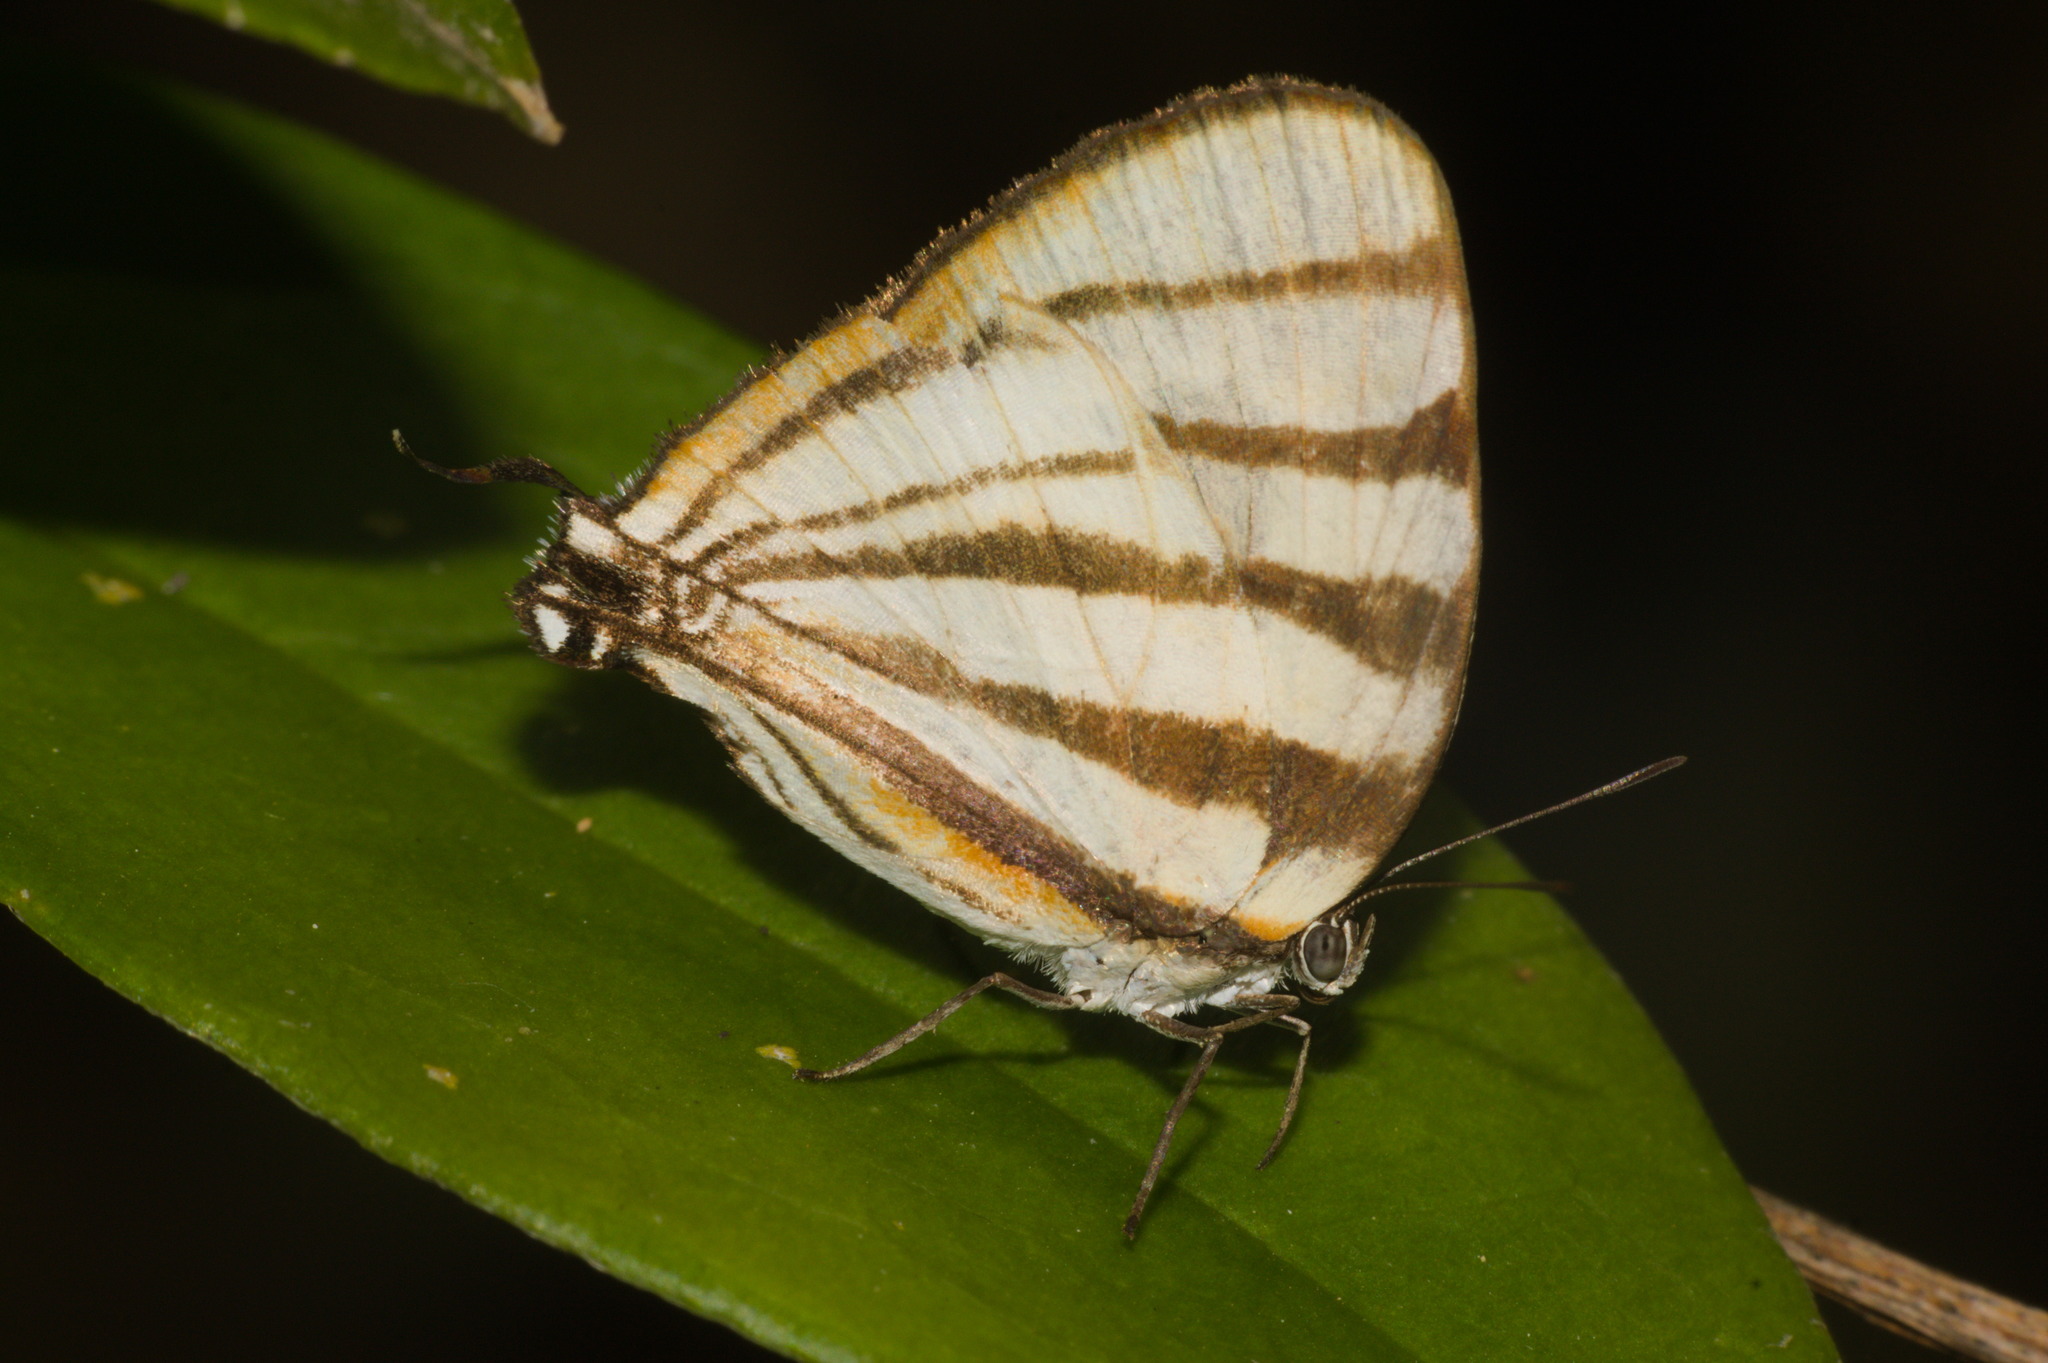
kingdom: Animalia
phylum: Arthropoda
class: Insecta
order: Lepidoptera
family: Lycaenidae
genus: Arawacus
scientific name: Arawacus separata
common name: Separated stripestreak
